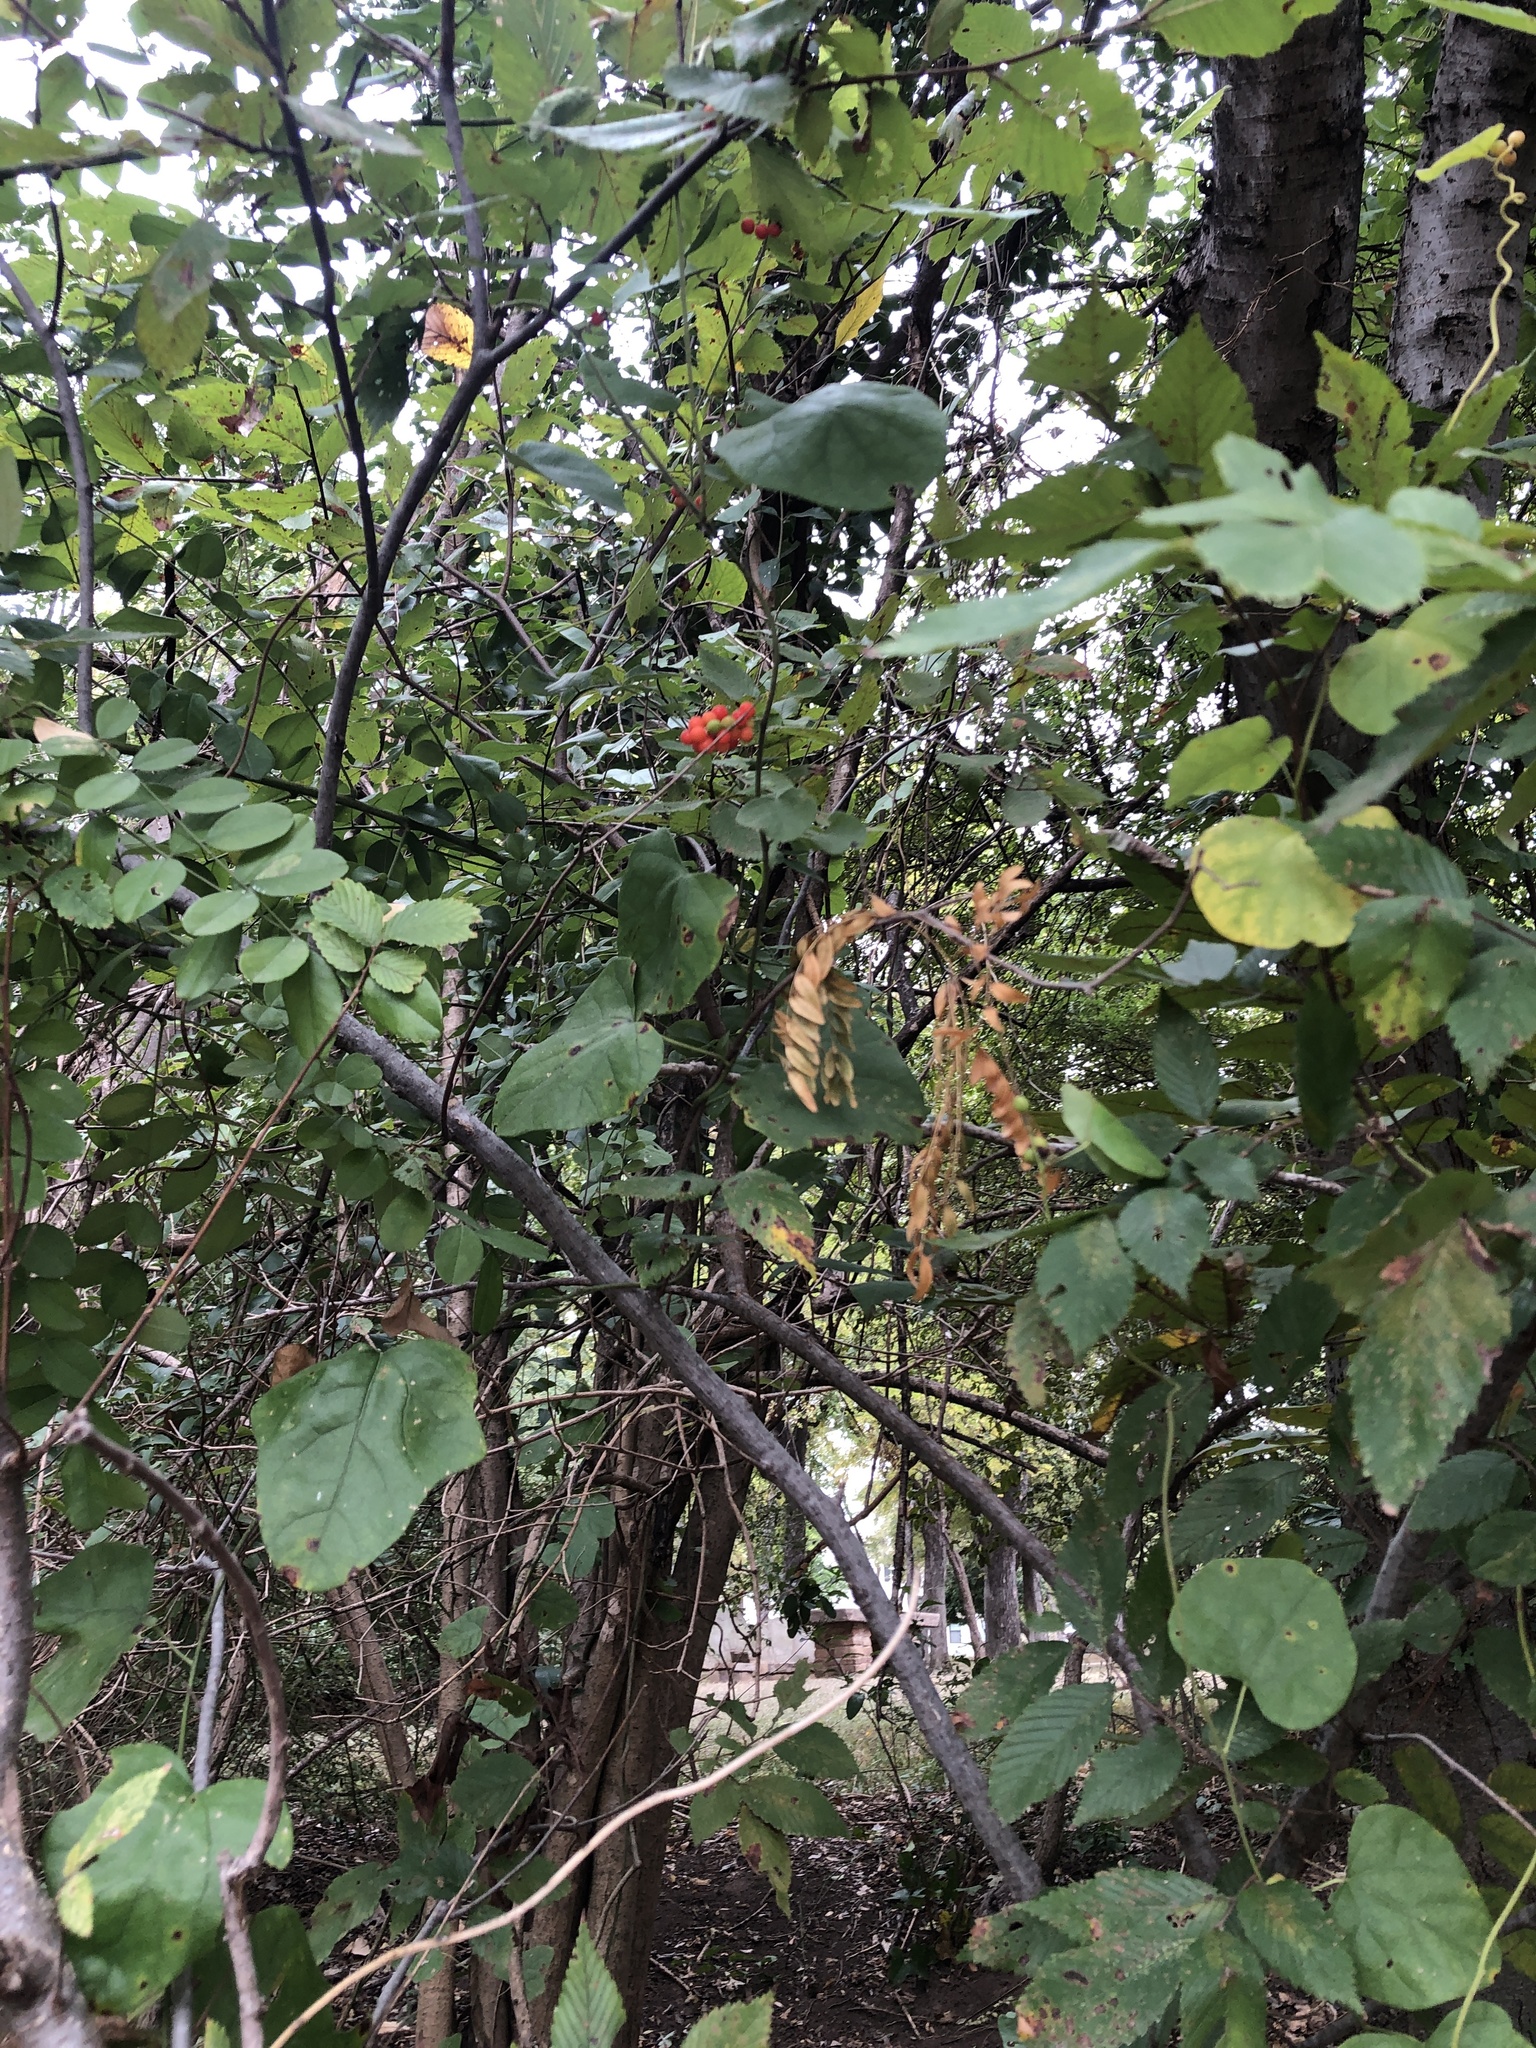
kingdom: Plantae
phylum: Tracheophyta
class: Magnoliopsida
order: Ranunculales
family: Menispermaceae
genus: Cocculus
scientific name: Cocculus carolinus
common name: Carolina moonseed
